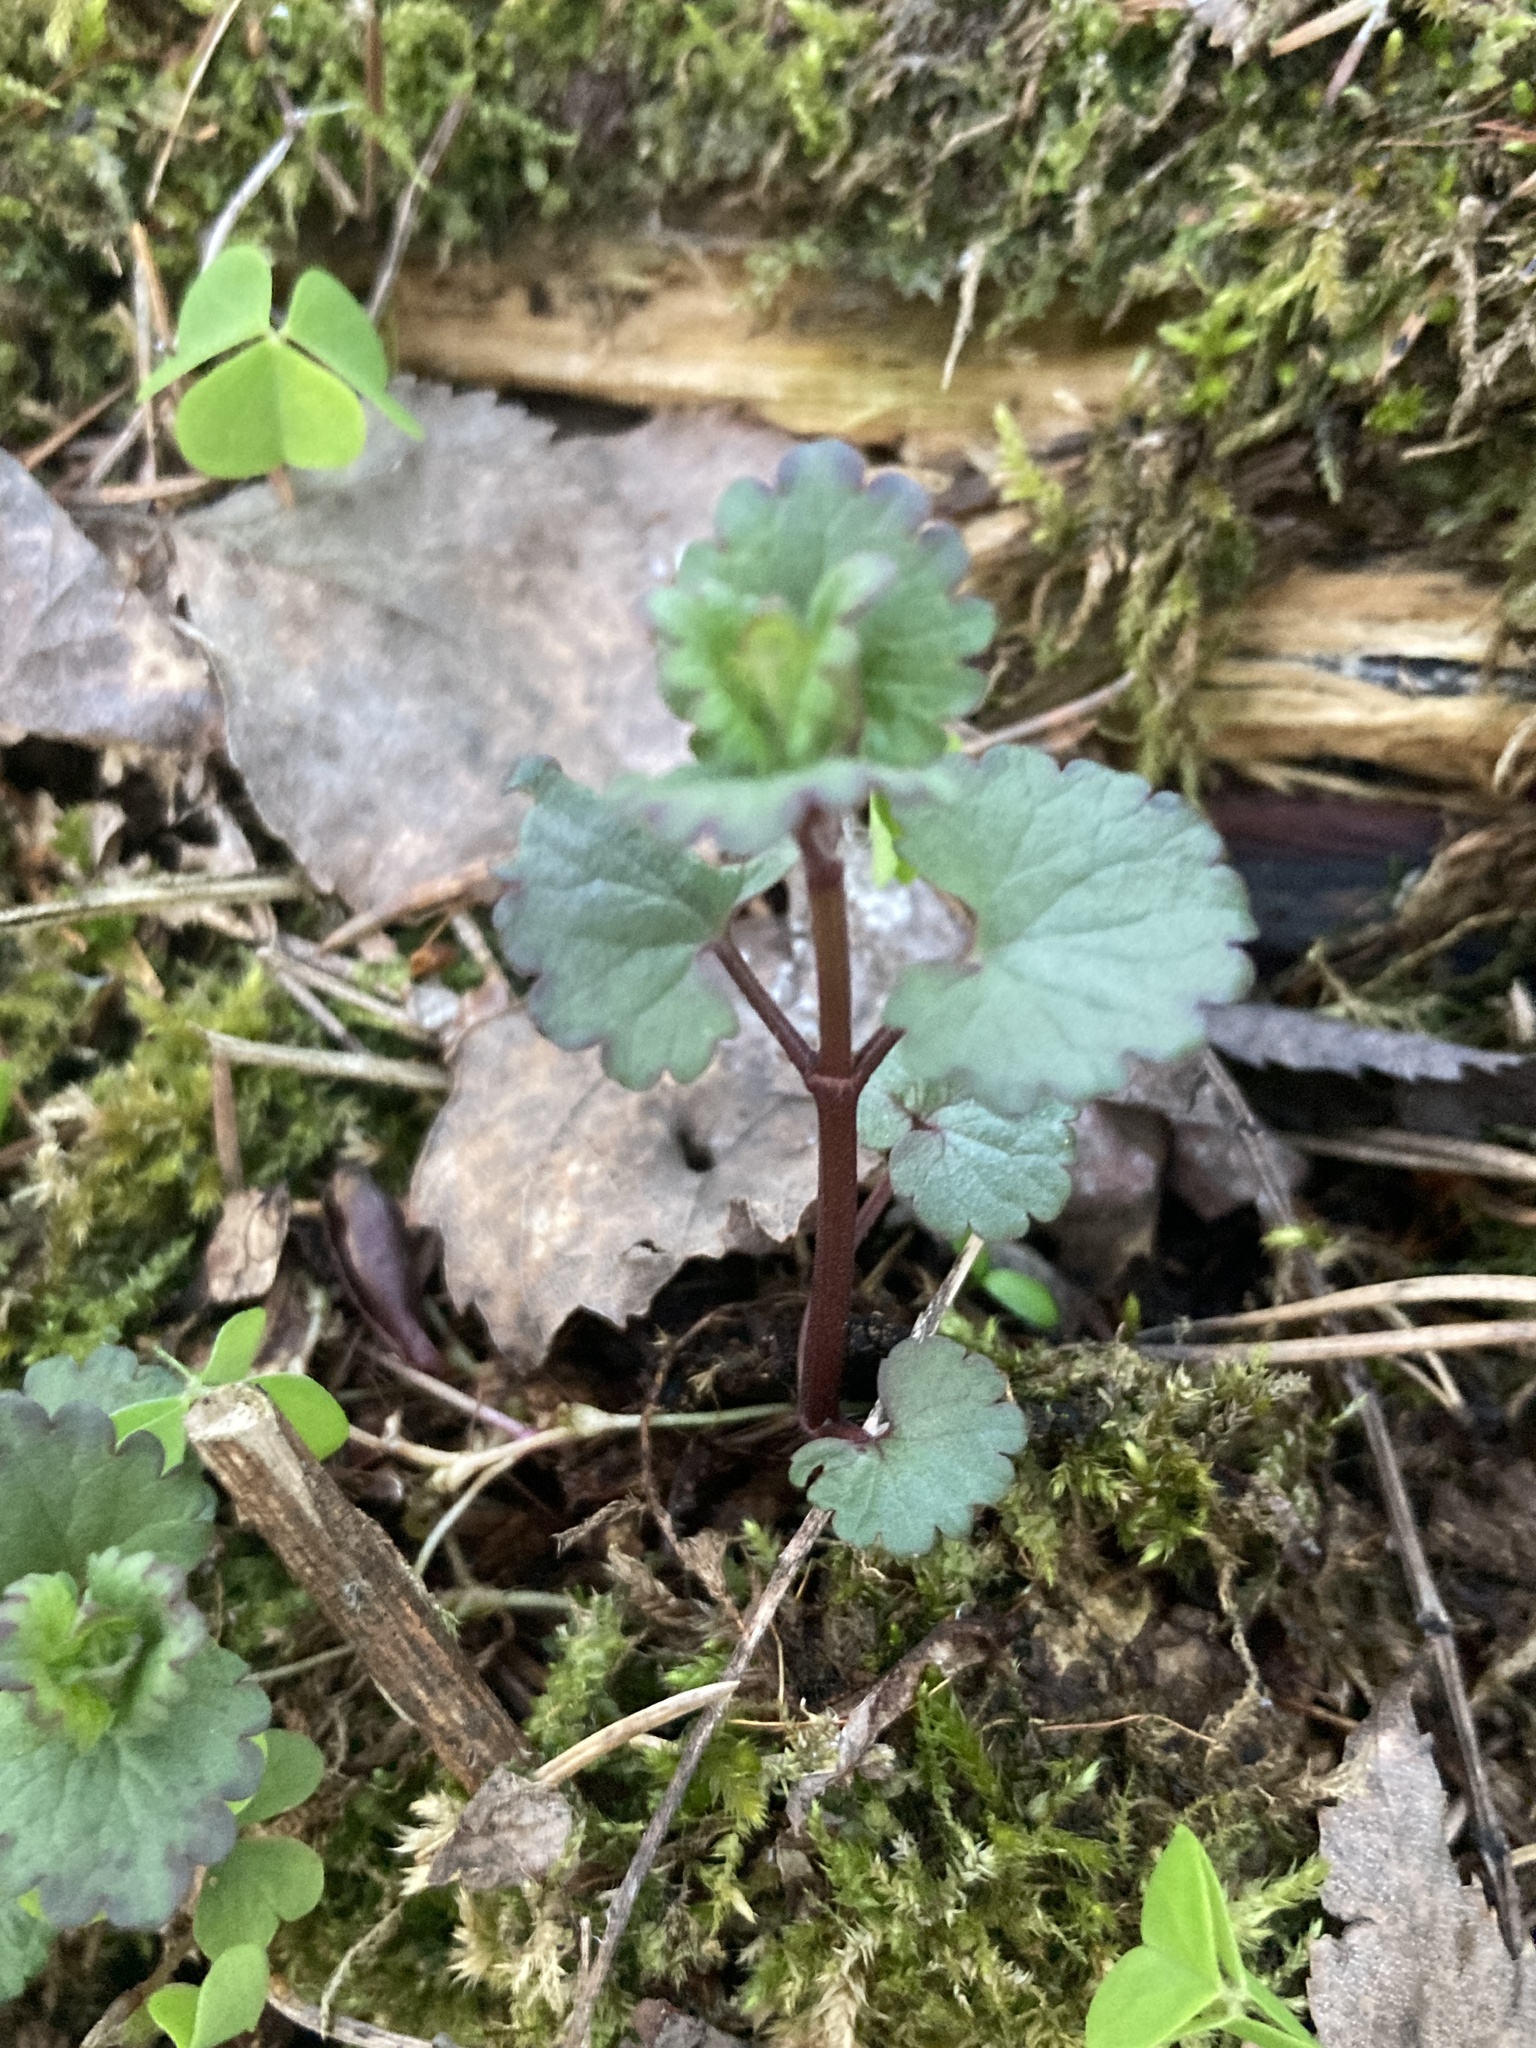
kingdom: Plantae
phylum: Tracheophyta
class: Magnoliopsida
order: Lamiales
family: Lamiaceae
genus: Glechoma
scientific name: Glechoma hederacea
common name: Ground ivy
